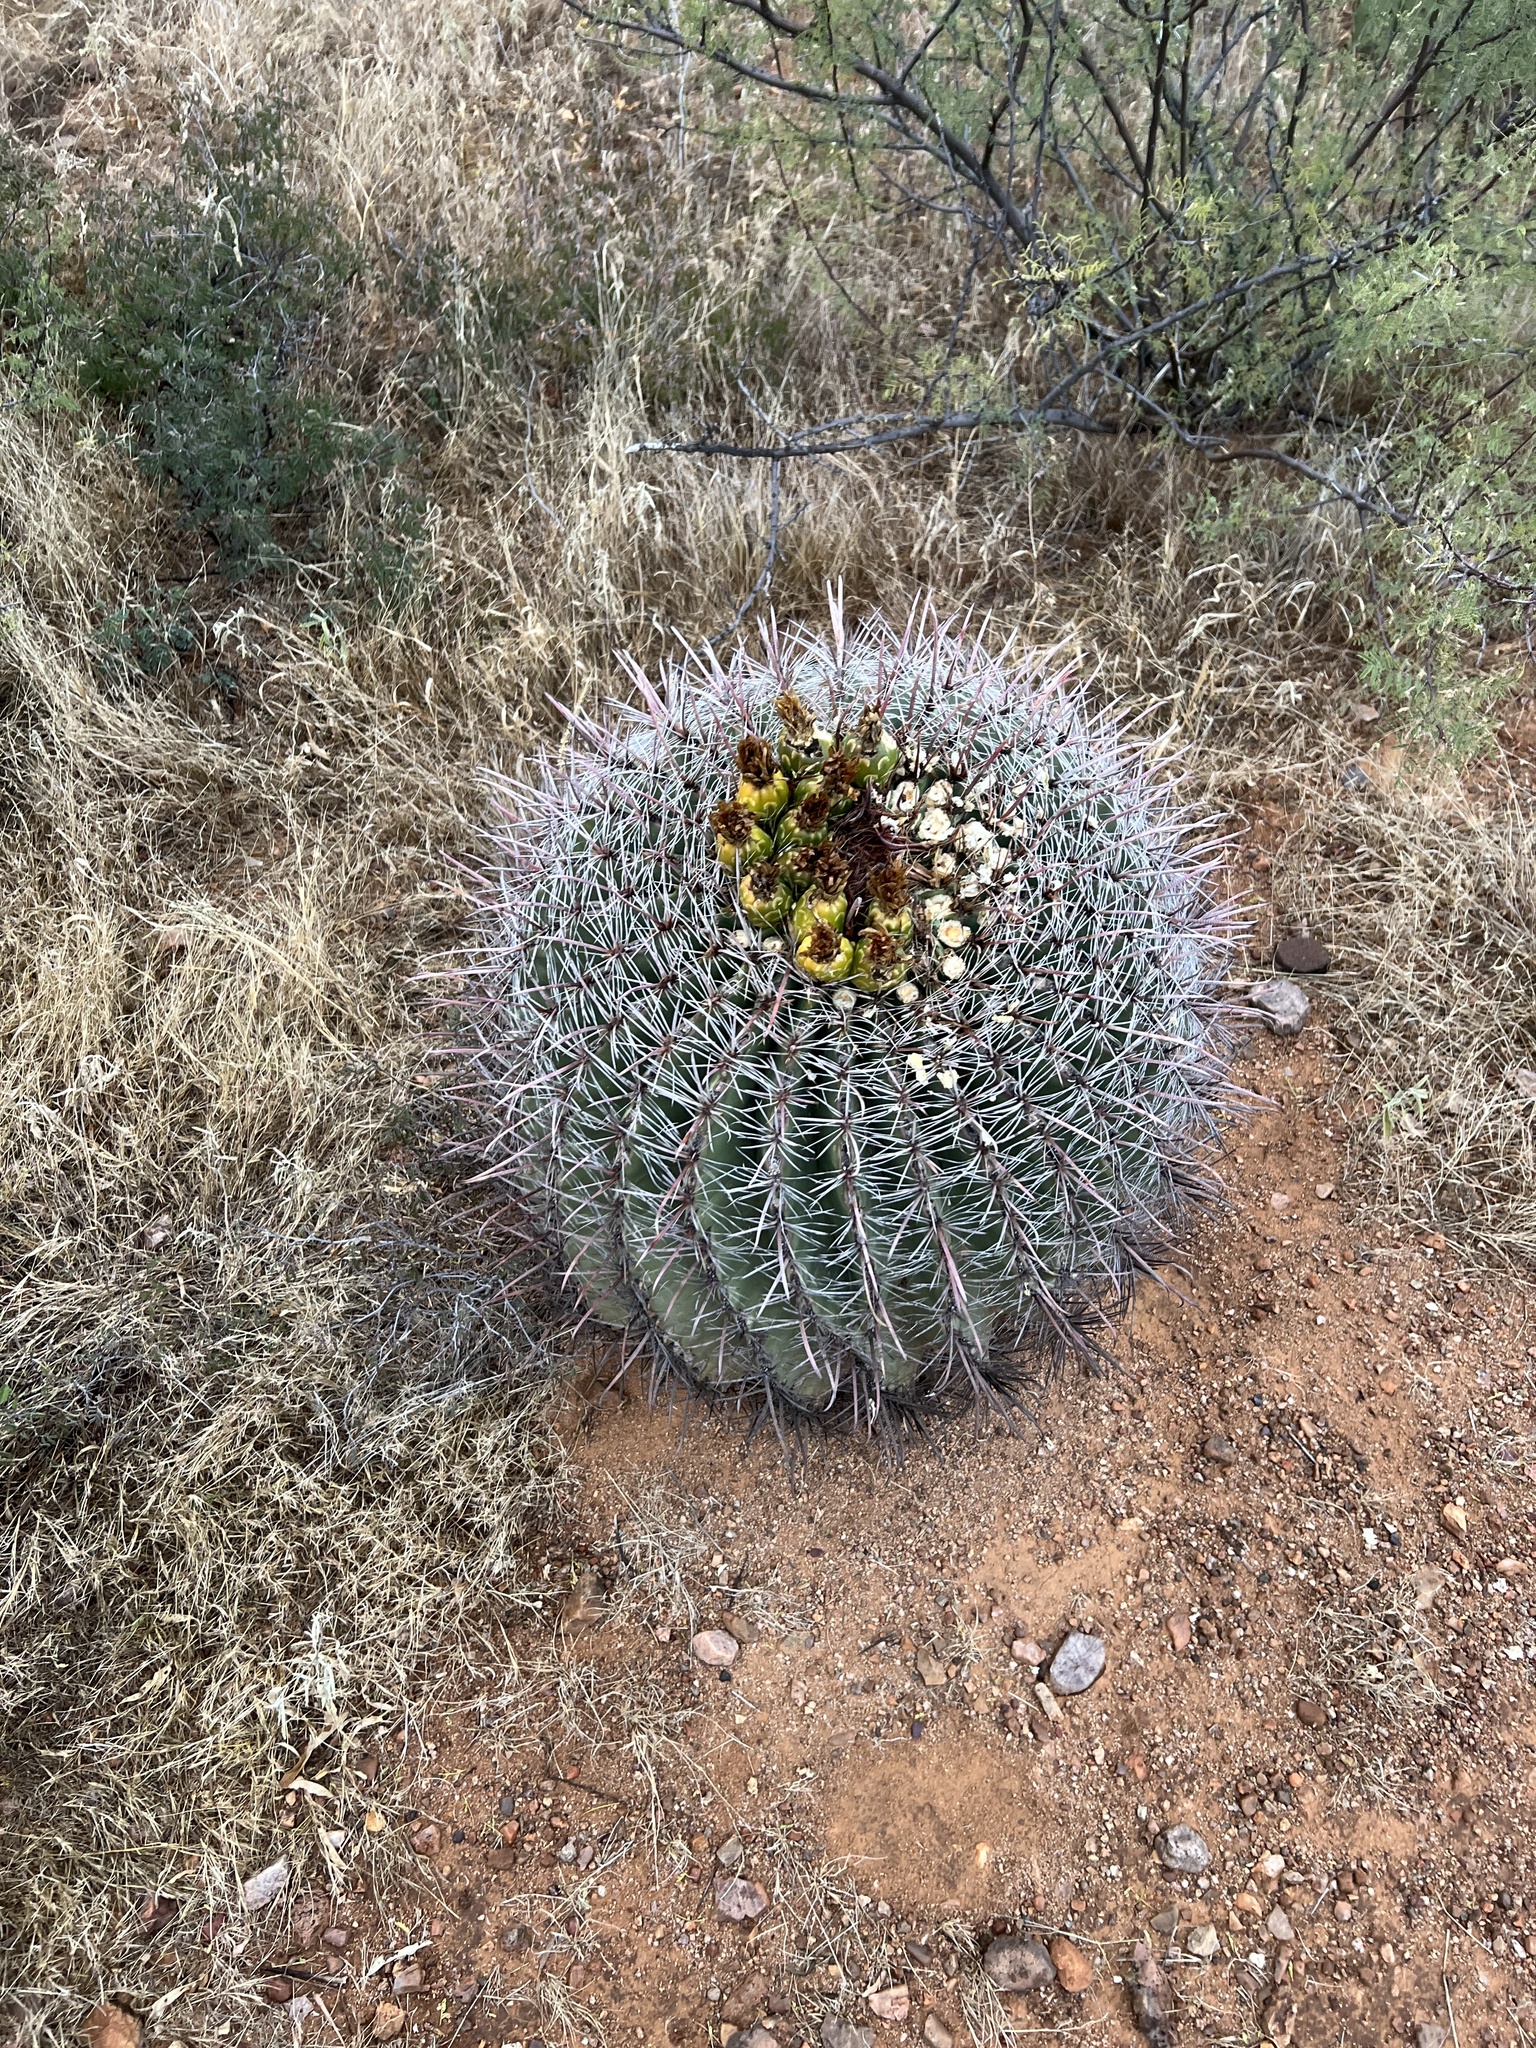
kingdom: Plantae
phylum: Tracheophyta
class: Magnoliopsida
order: Caryophyllales
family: Cactaceae
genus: Ferocactus
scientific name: Ferocactus wislizeni
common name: Candy barrel cactus
